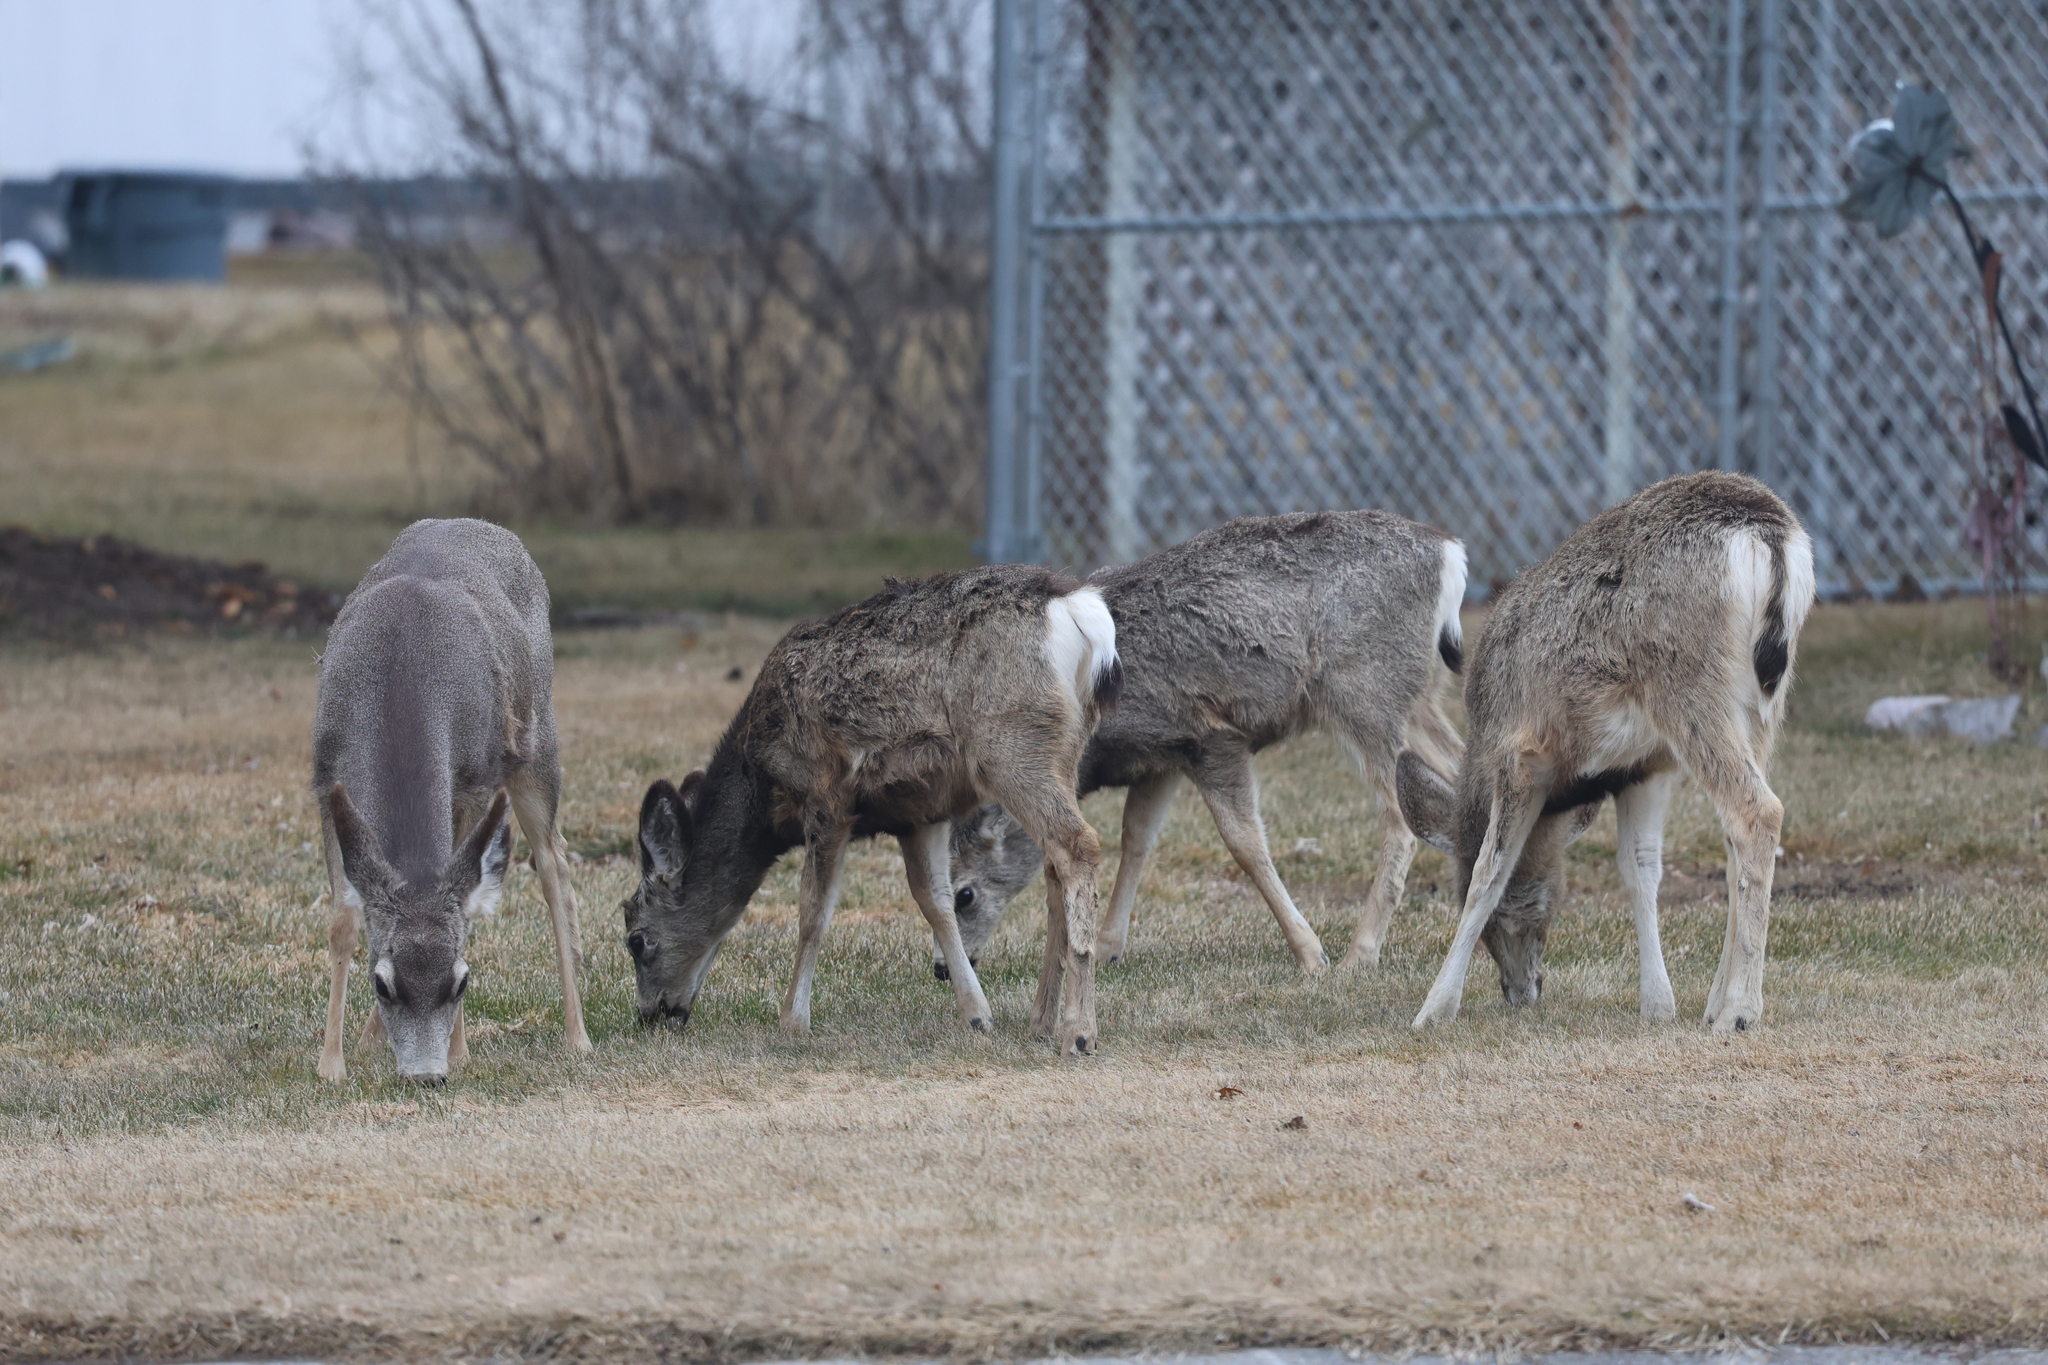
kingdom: Animalia
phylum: Chordata
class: Mammalia
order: Artiodactyla
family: Cervidae
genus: Odocoileus
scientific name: Odocoileus hemionus
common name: Mule deer
